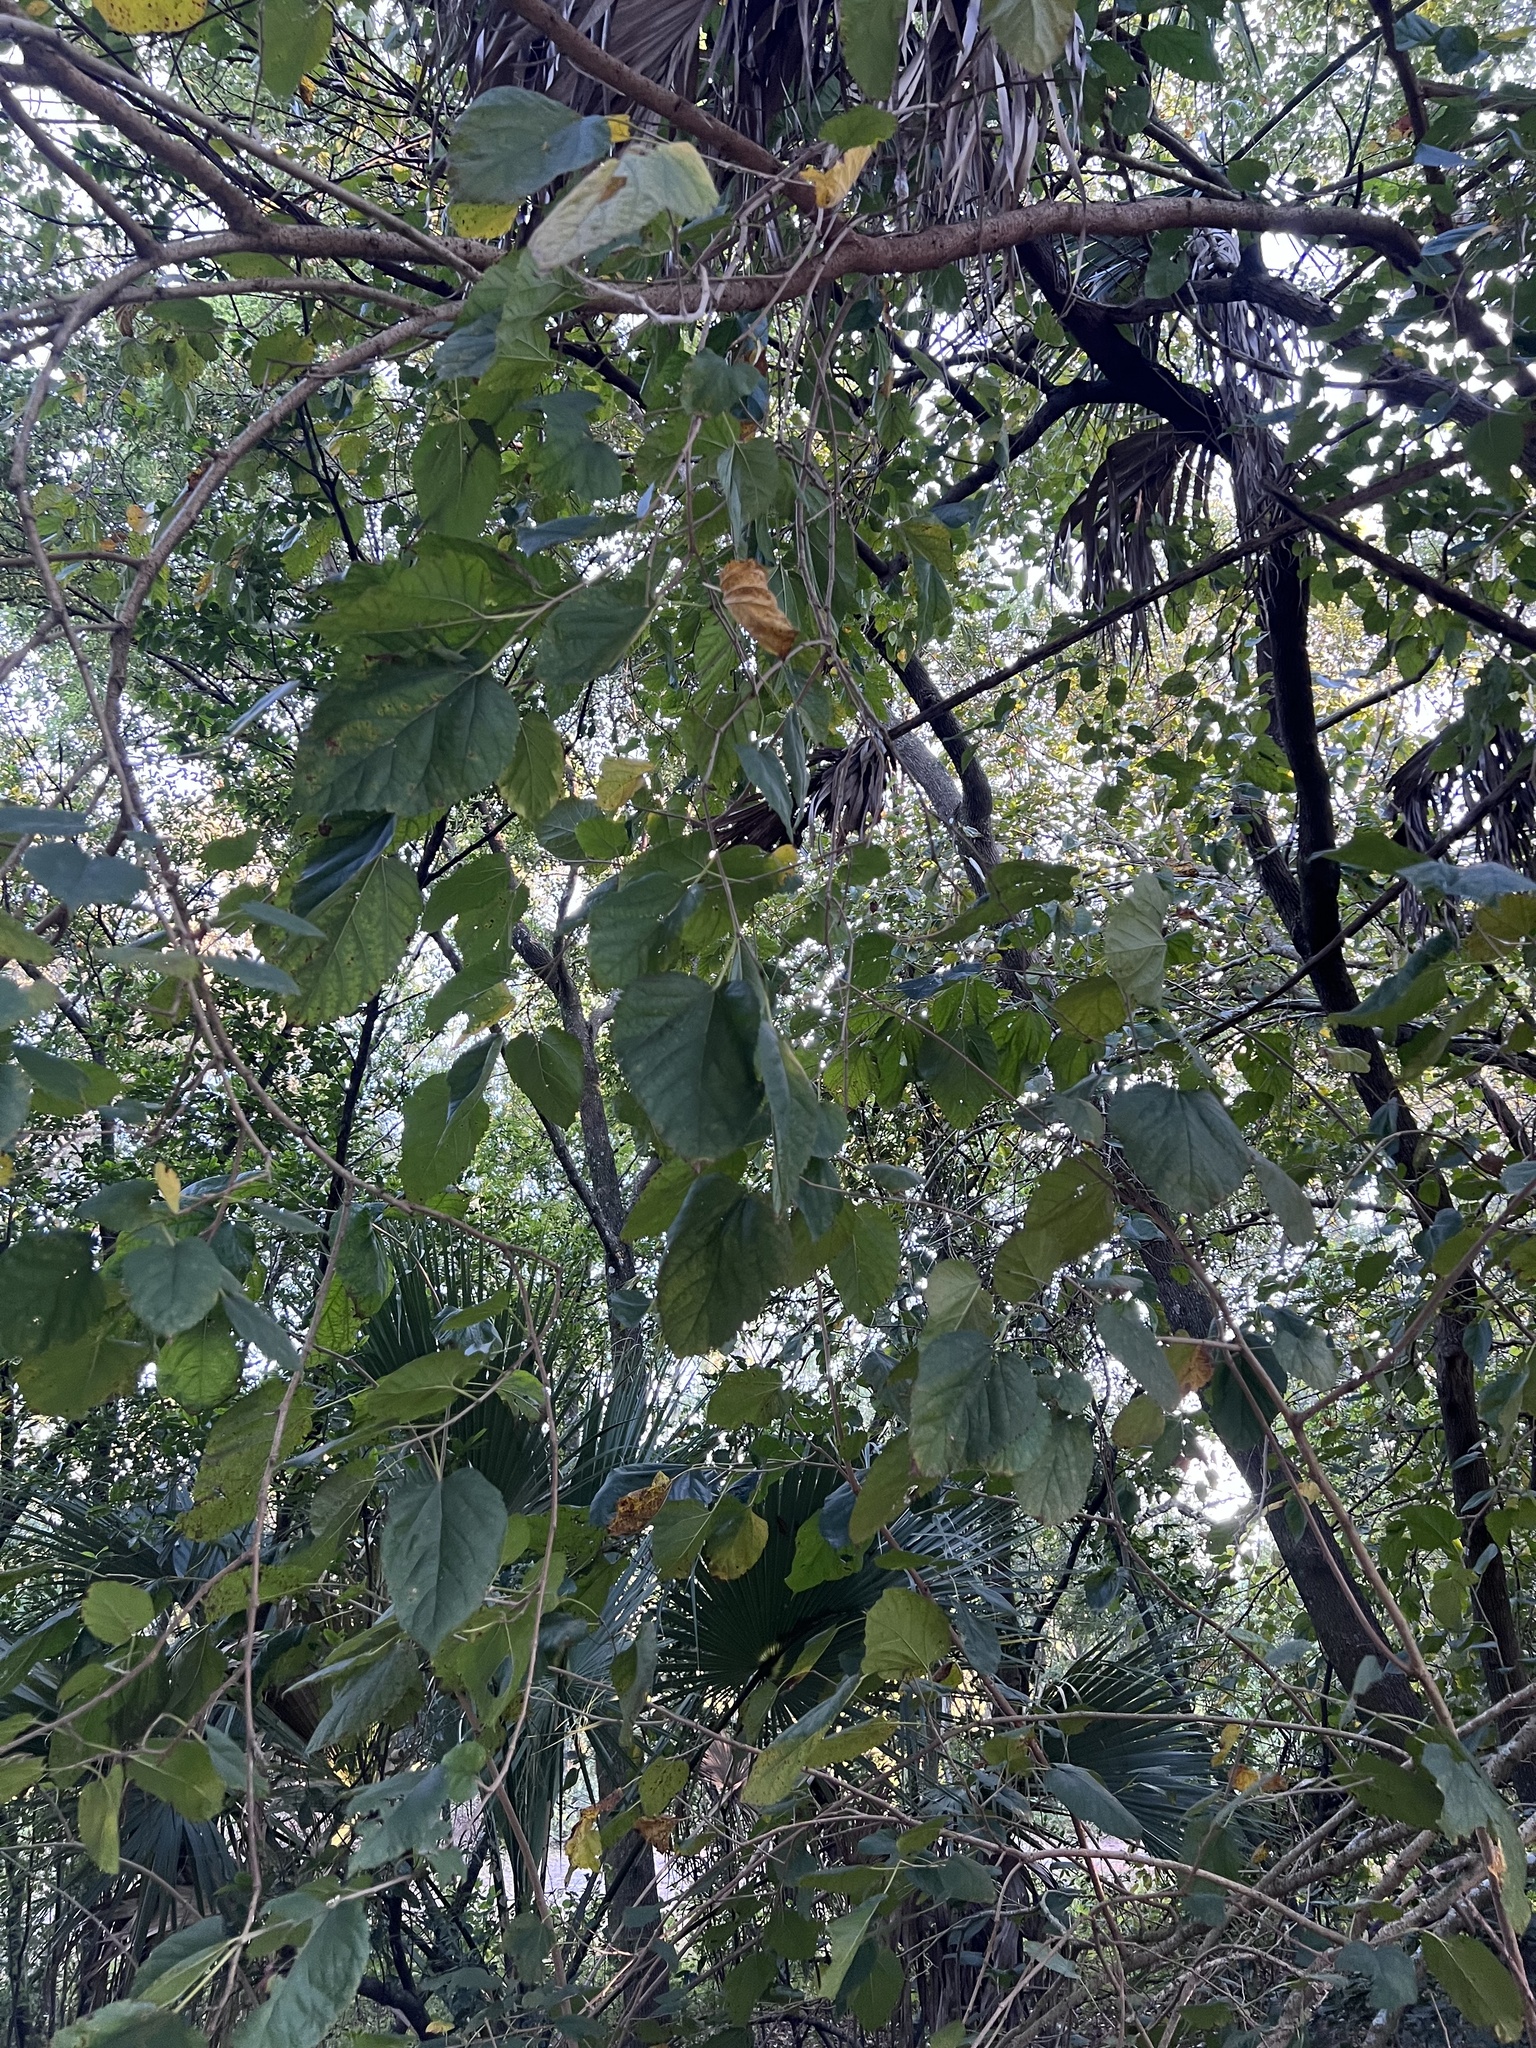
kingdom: Plantae
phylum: Tracheophyta
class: Magnoliopsida
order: Rosales
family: Moraceae
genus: Morus
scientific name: Morus alba
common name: White mulberry
